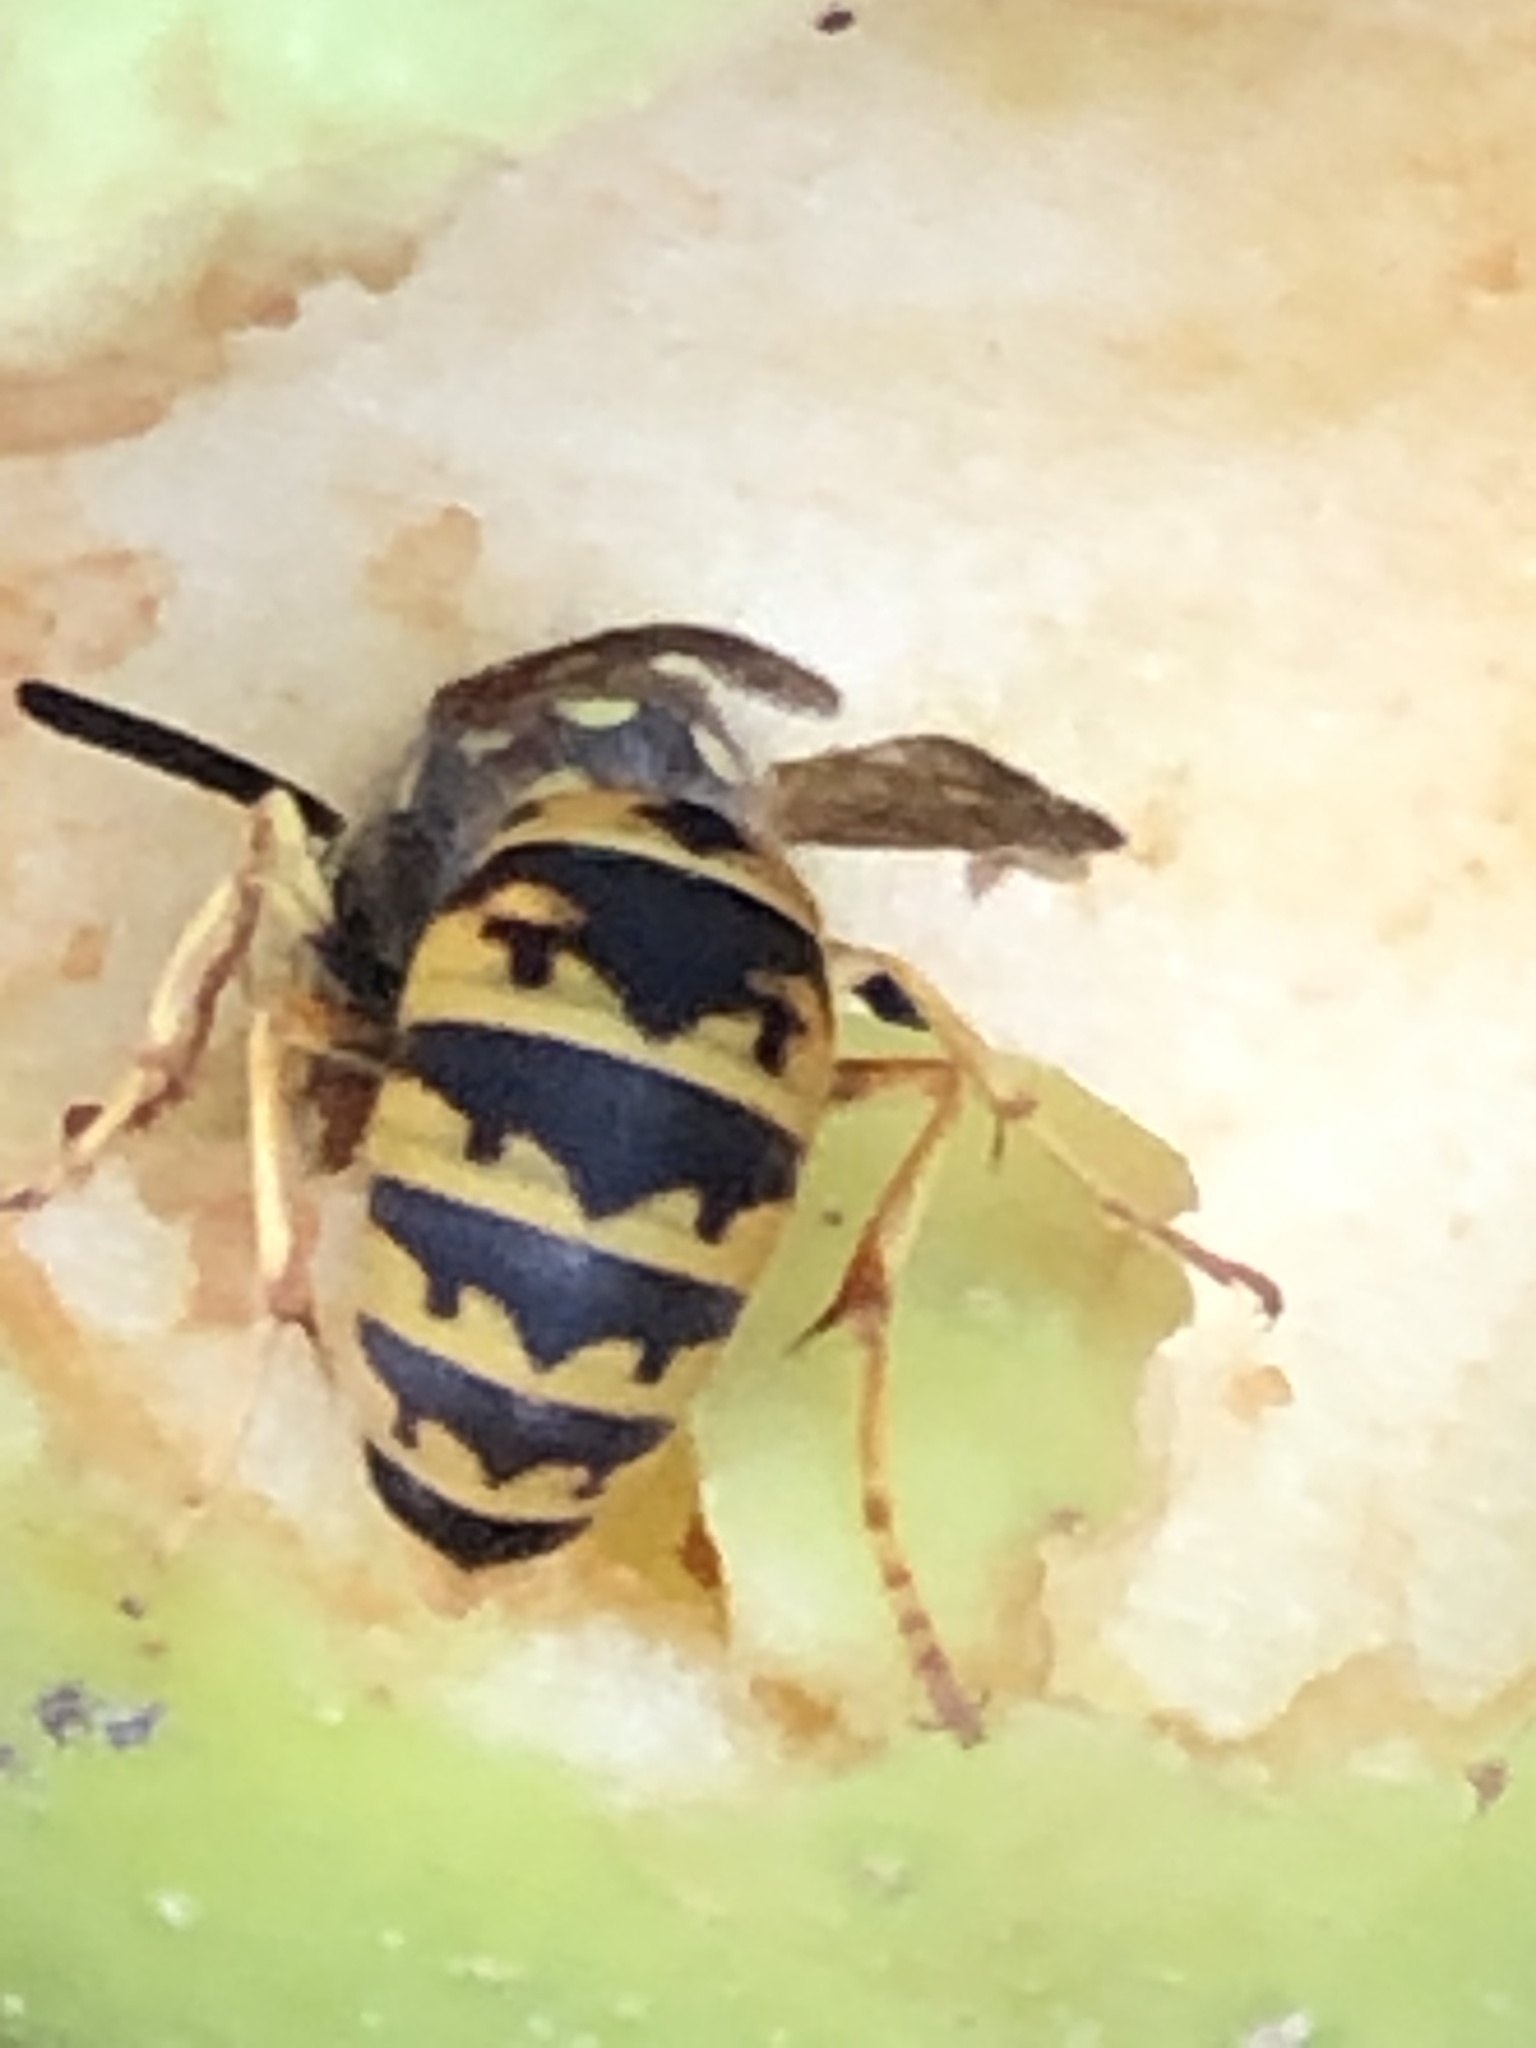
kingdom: Animalia
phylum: Arthropoda
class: Insecta
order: Hymenoptera
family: Vespidae
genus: Vespula
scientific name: Vespula germanica
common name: German wasp
